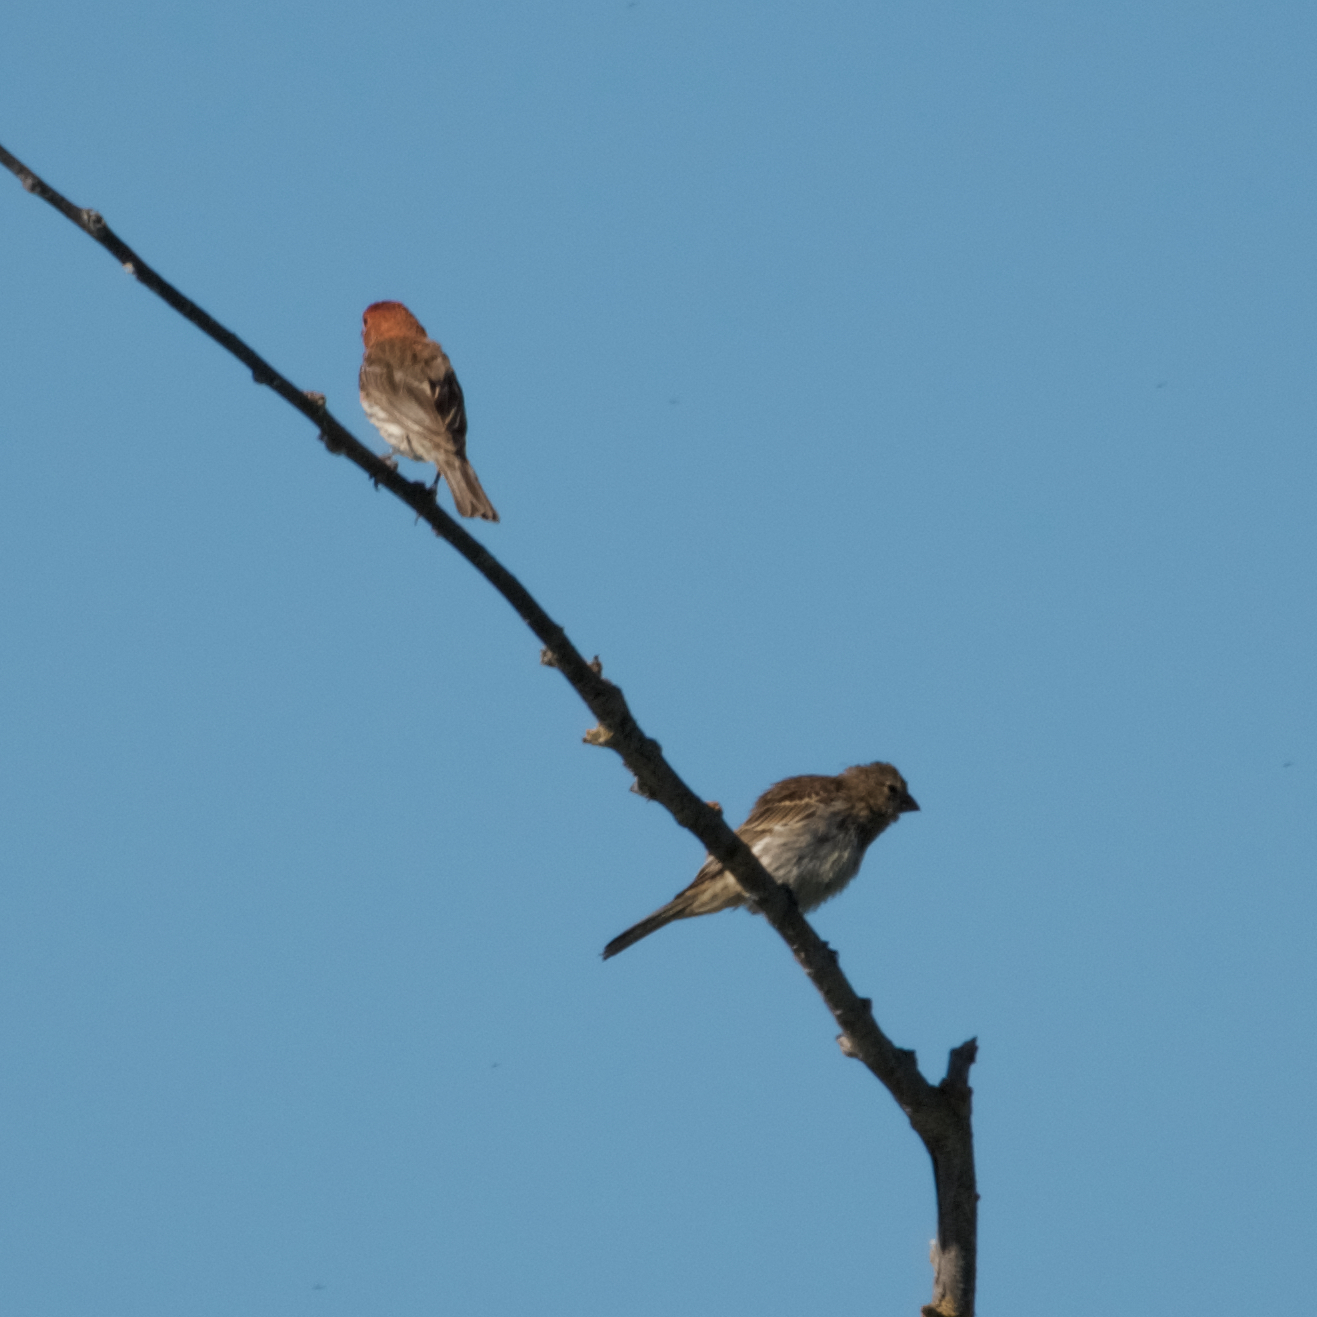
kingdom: Animalia
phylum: Chordata
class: Aves
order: Passeriformes
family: Fringillidae
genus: Haemorhous
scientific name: Haemorhous mexicanus
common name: House finch
